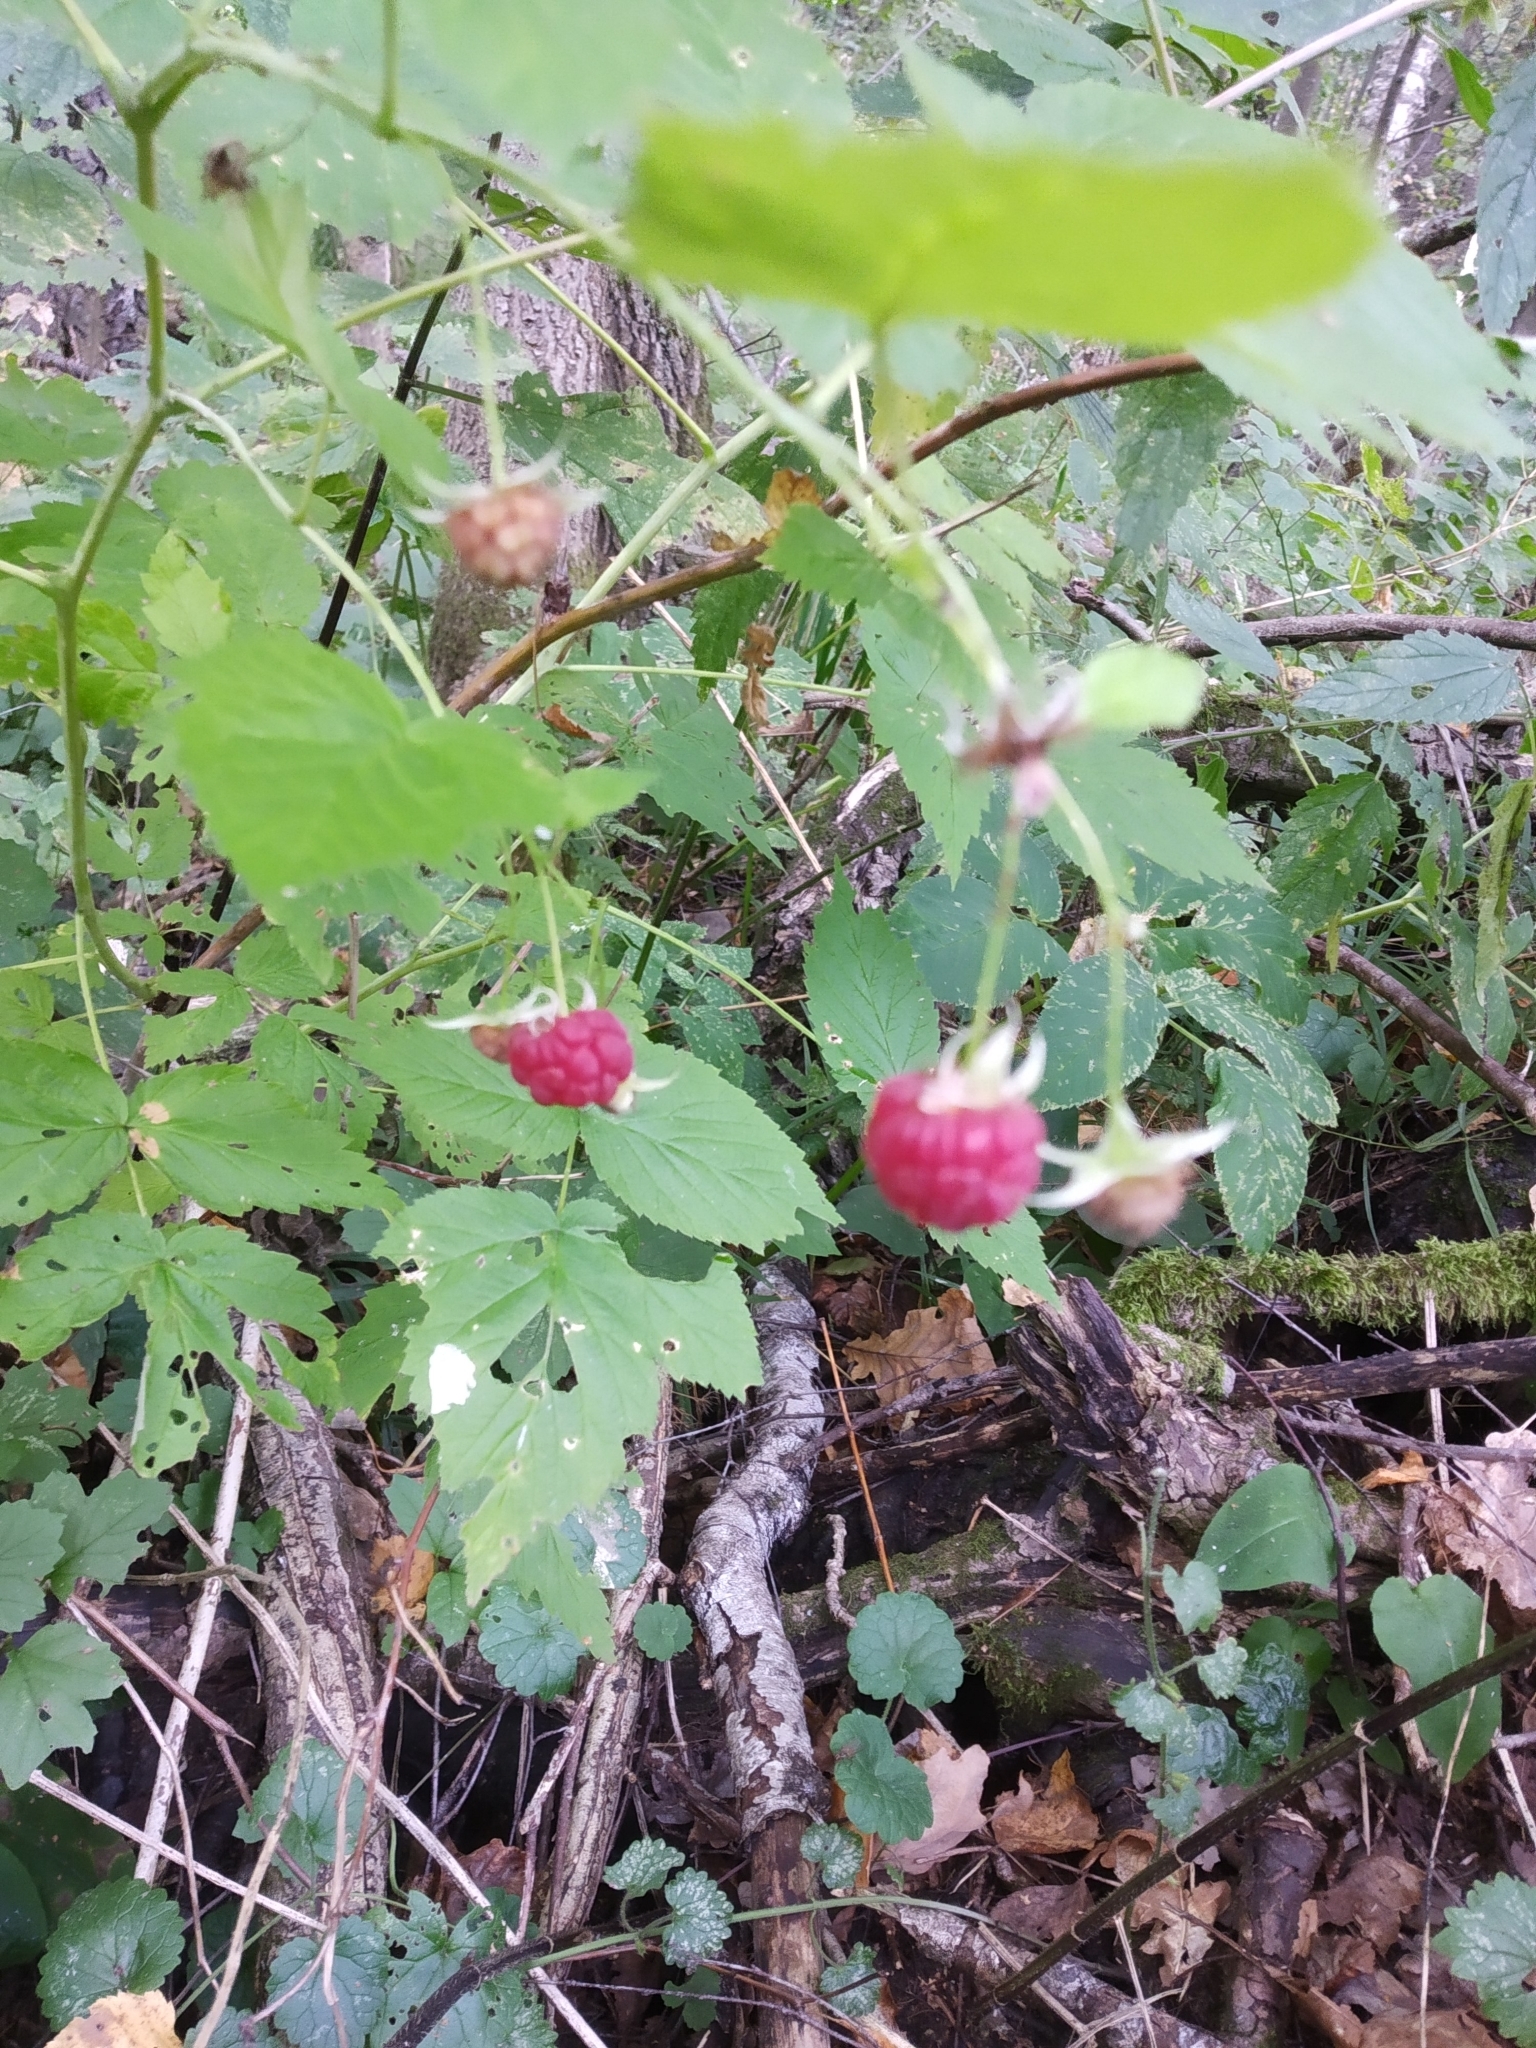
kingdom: Plantae
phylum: Tracheophyta
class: Magnoliopsida
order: Rosales
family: Rosaceae
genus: Rubus
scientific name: Rubus idaeus
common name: Raspberry
